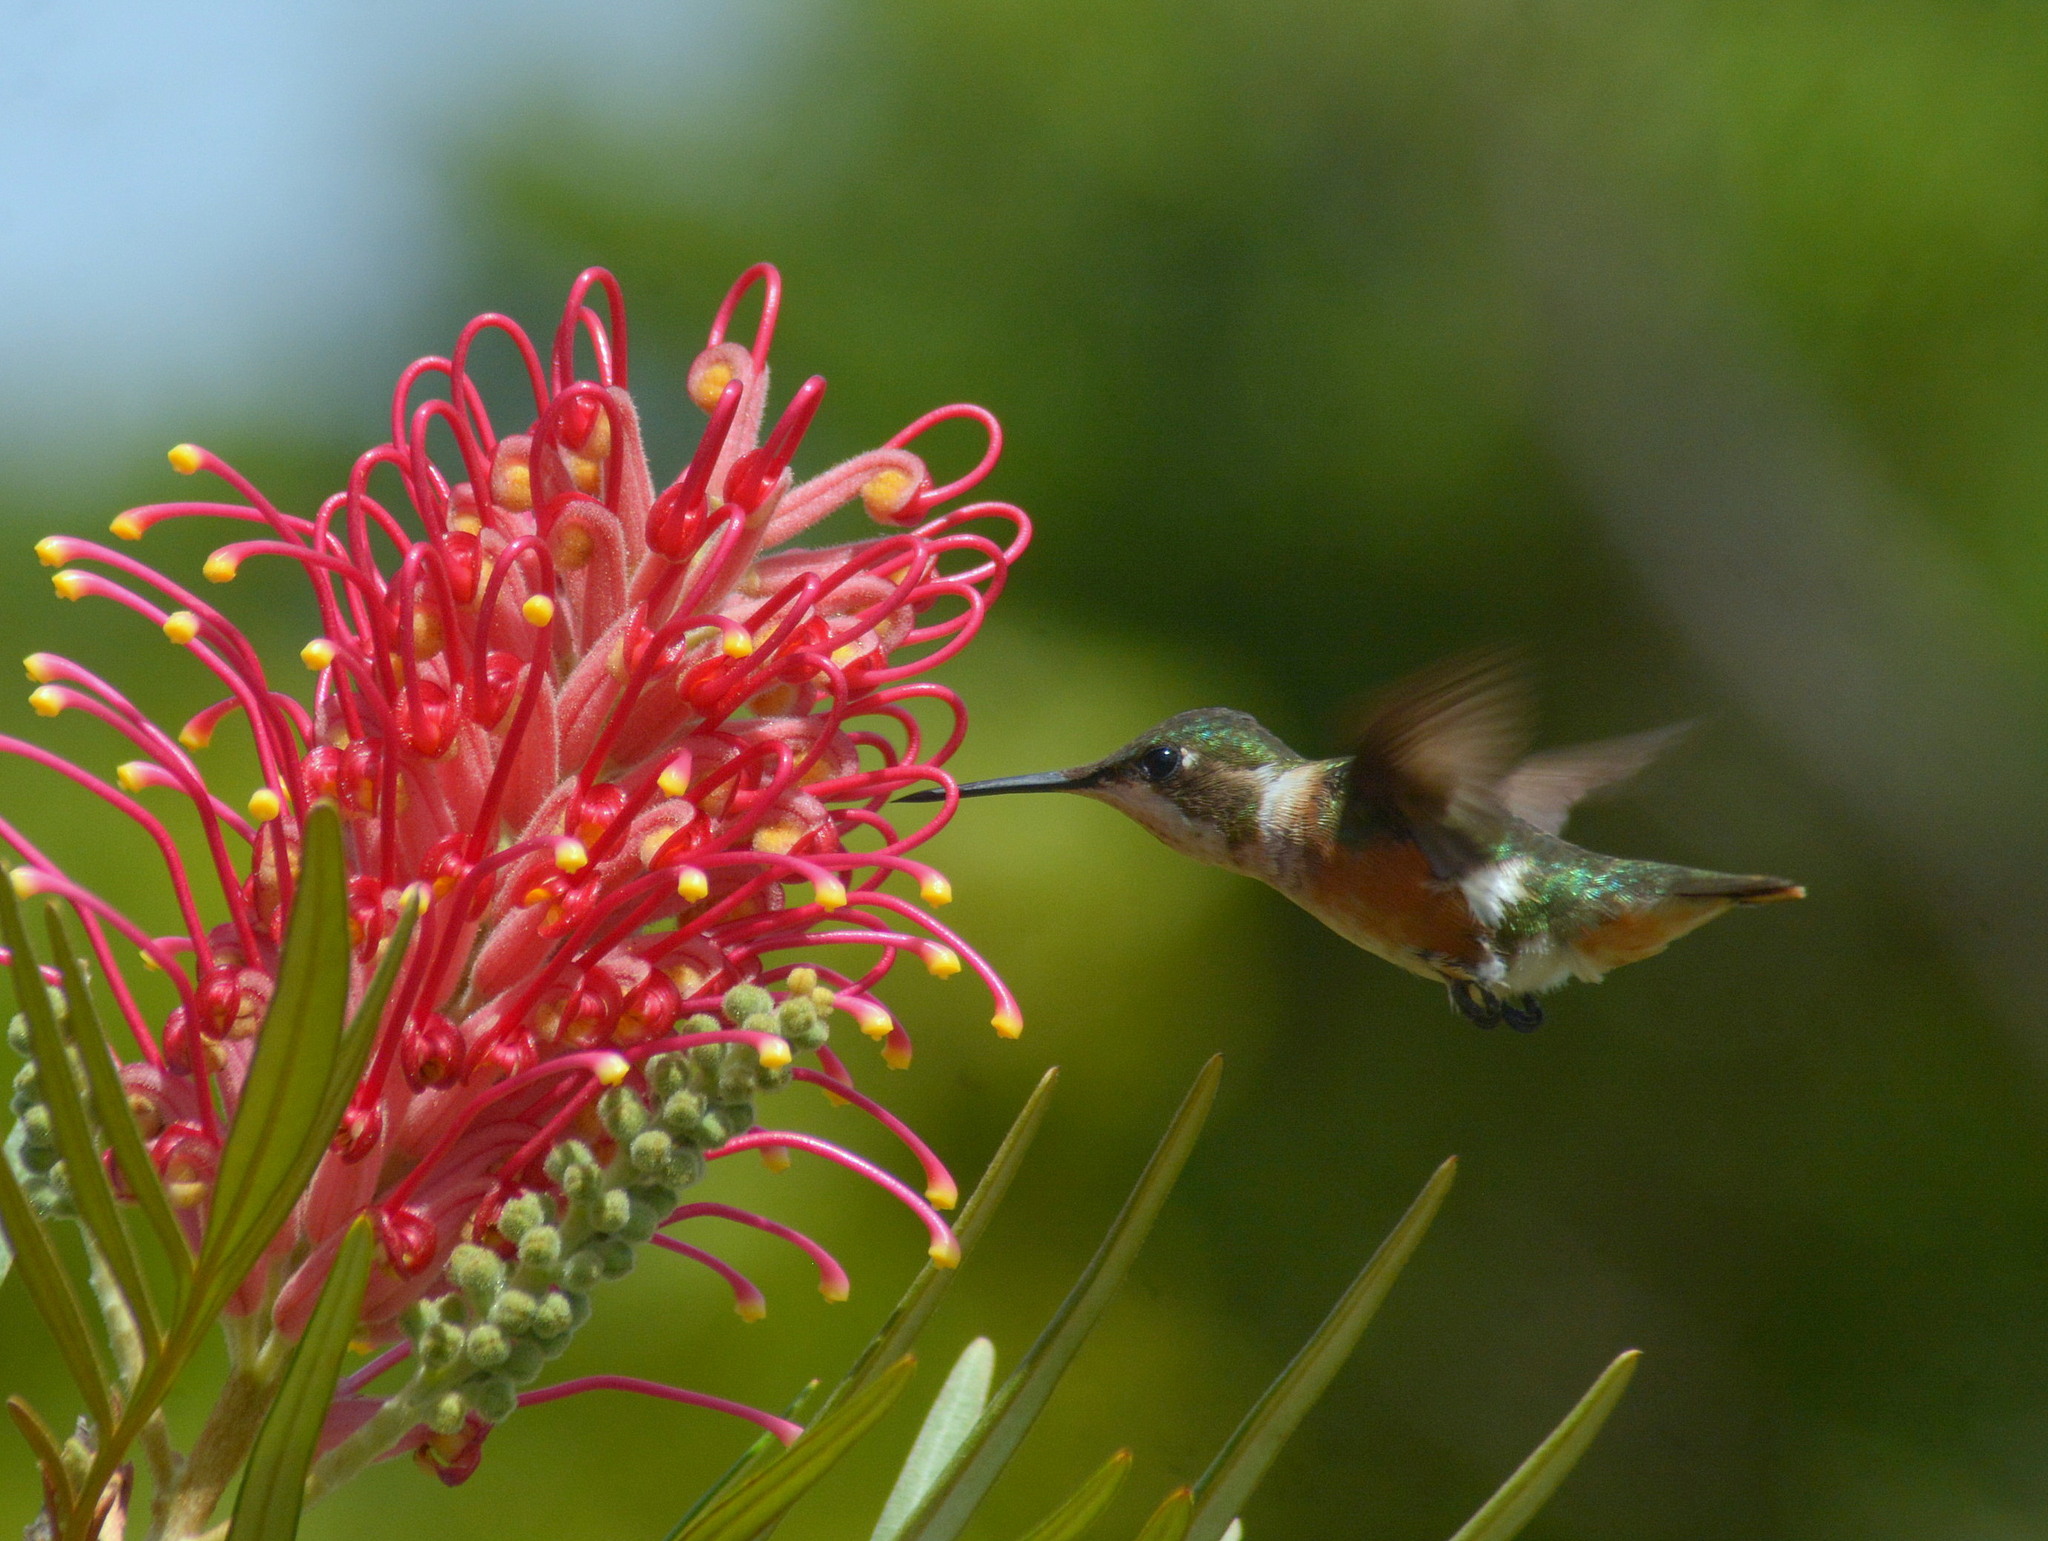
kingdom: Animalia
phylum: Chordata
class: Aves
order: Apodiformes
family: Trochilidae
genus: Calliphlox
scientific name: Calliphlox amethystina
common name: Amethyst woodstar
